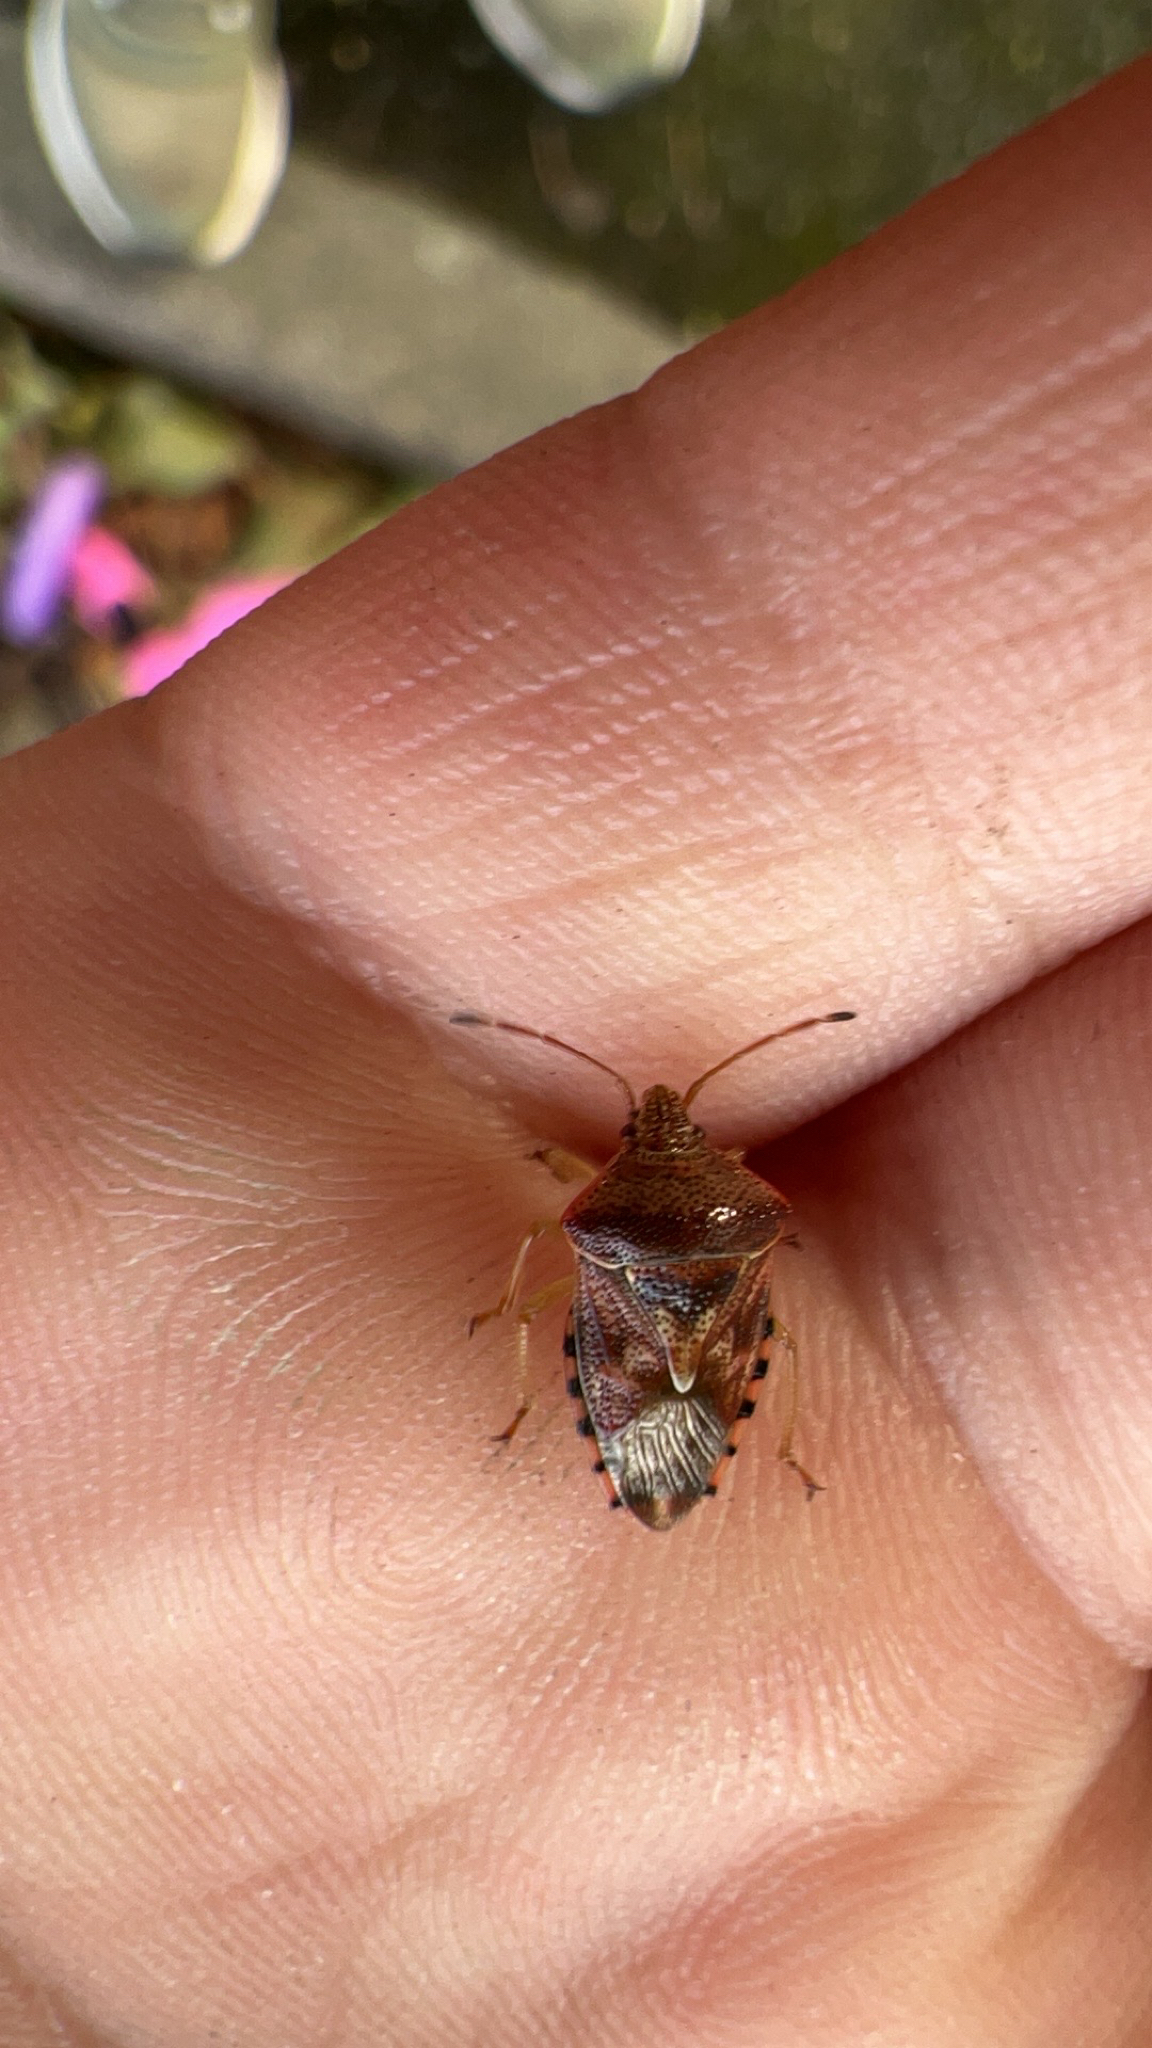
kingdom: Animalia
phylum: Arthropoda
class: Insecta
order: Hemiptera
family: Acanthosomatidae
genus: Elasmucha
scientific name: Elasmucha grisea
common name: Parent bug
